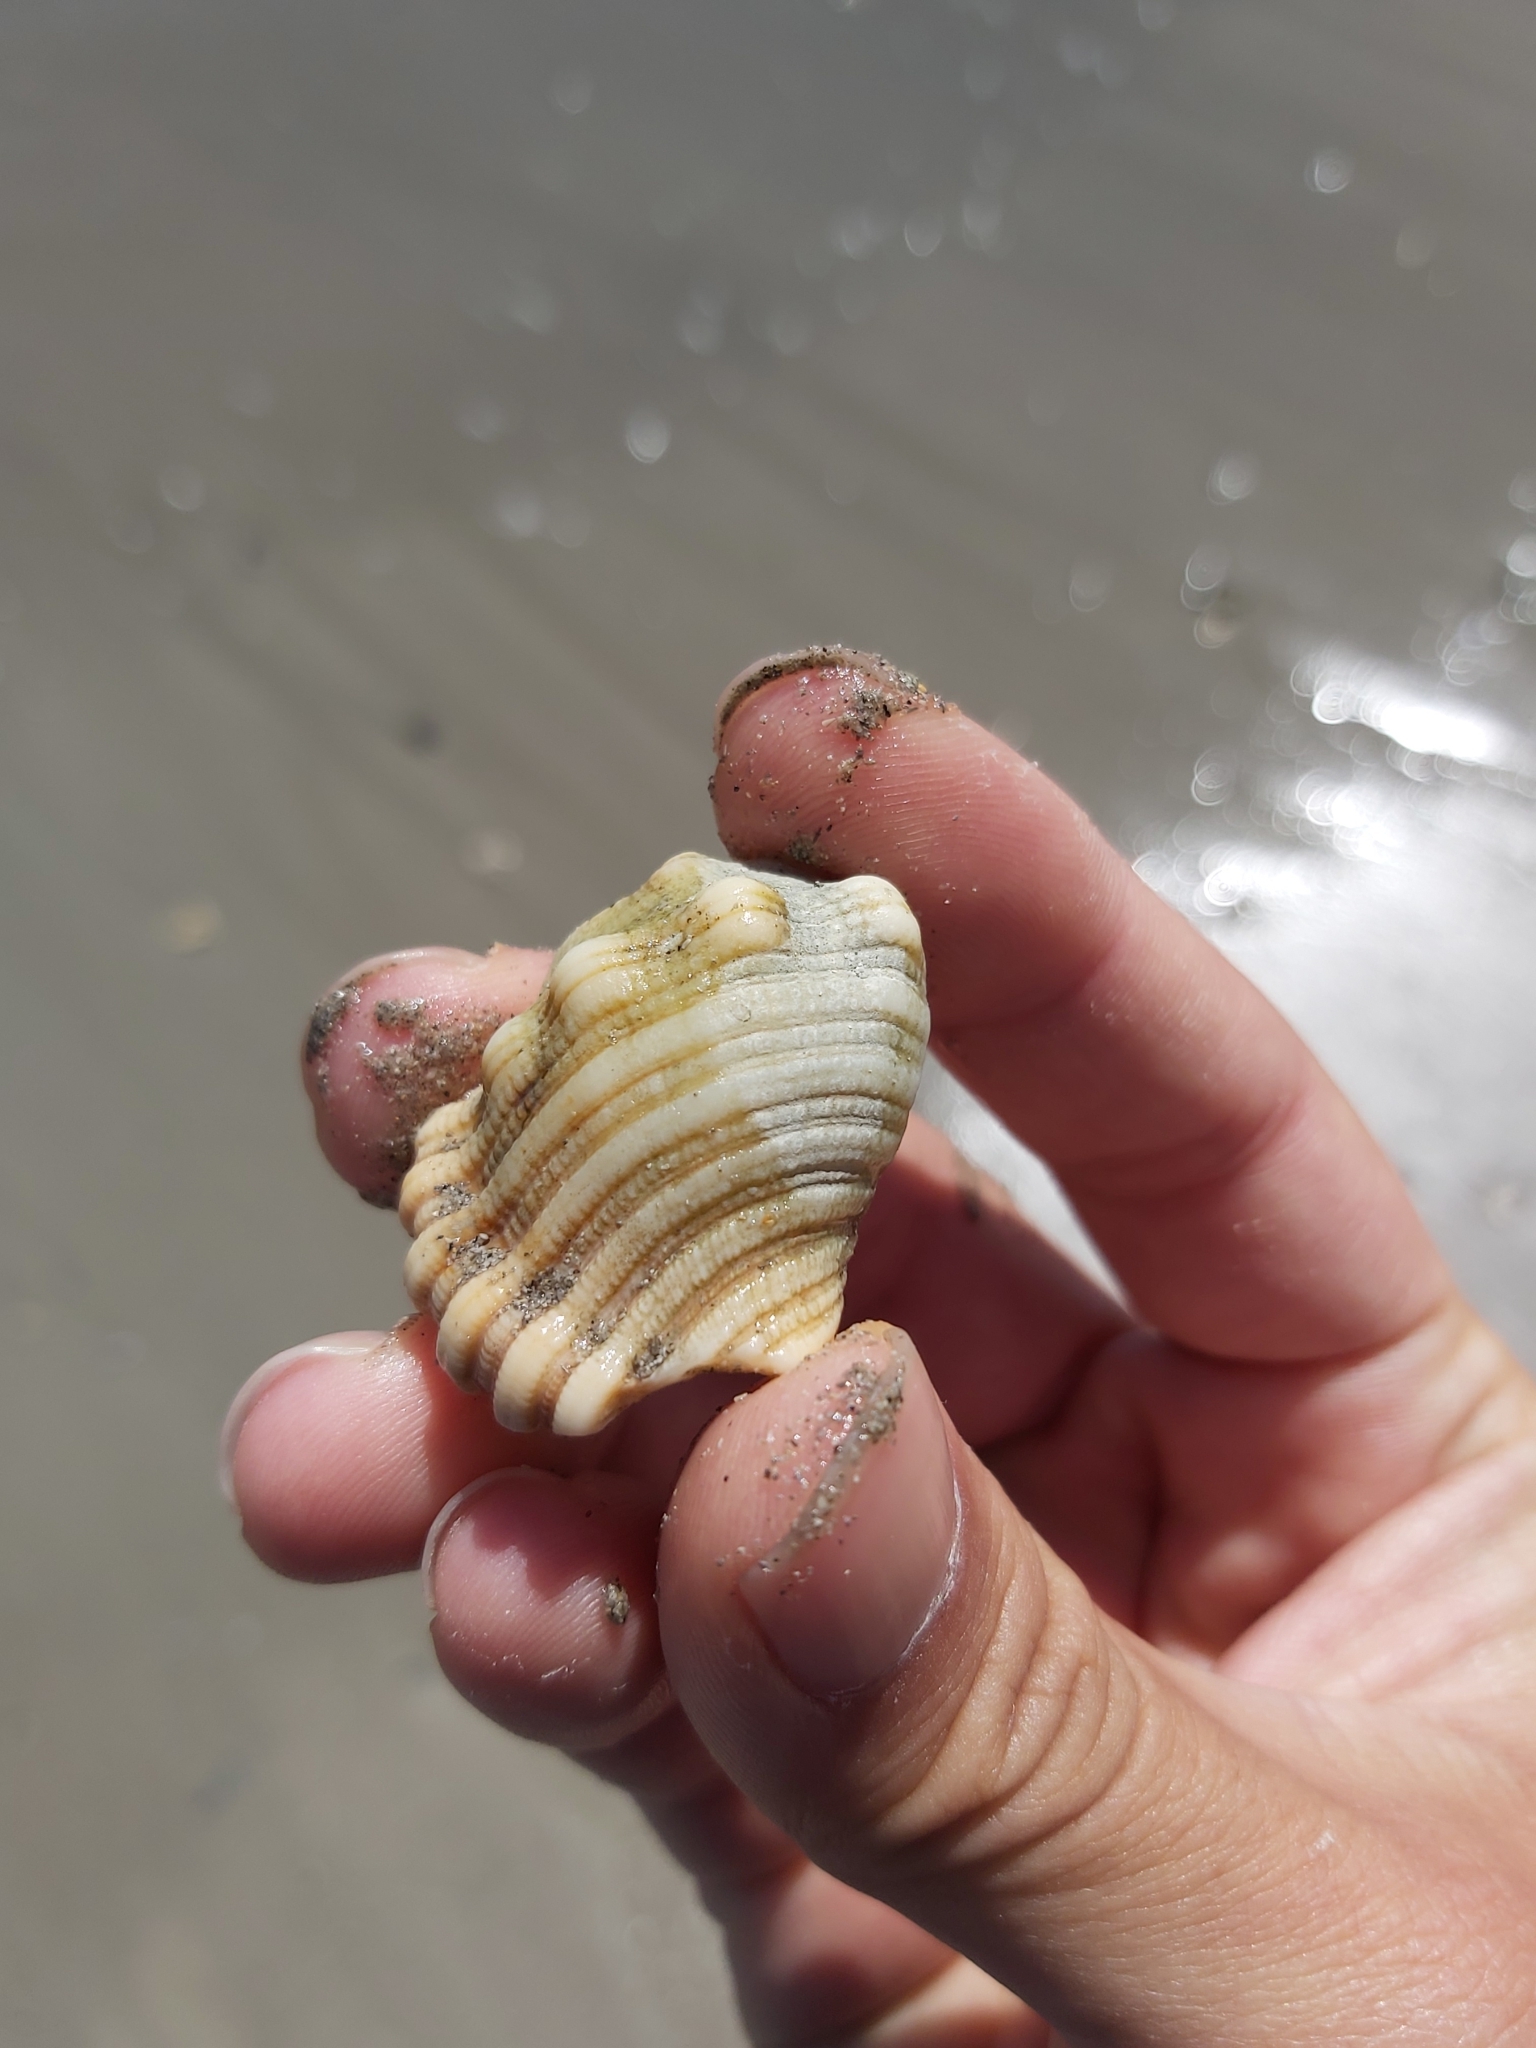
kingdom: Animalia
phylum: Mollusca
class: Gastropoda
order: Littorinimorpha
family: Cymatiidae
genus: Cabestana
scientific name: Cabestana spengleri
